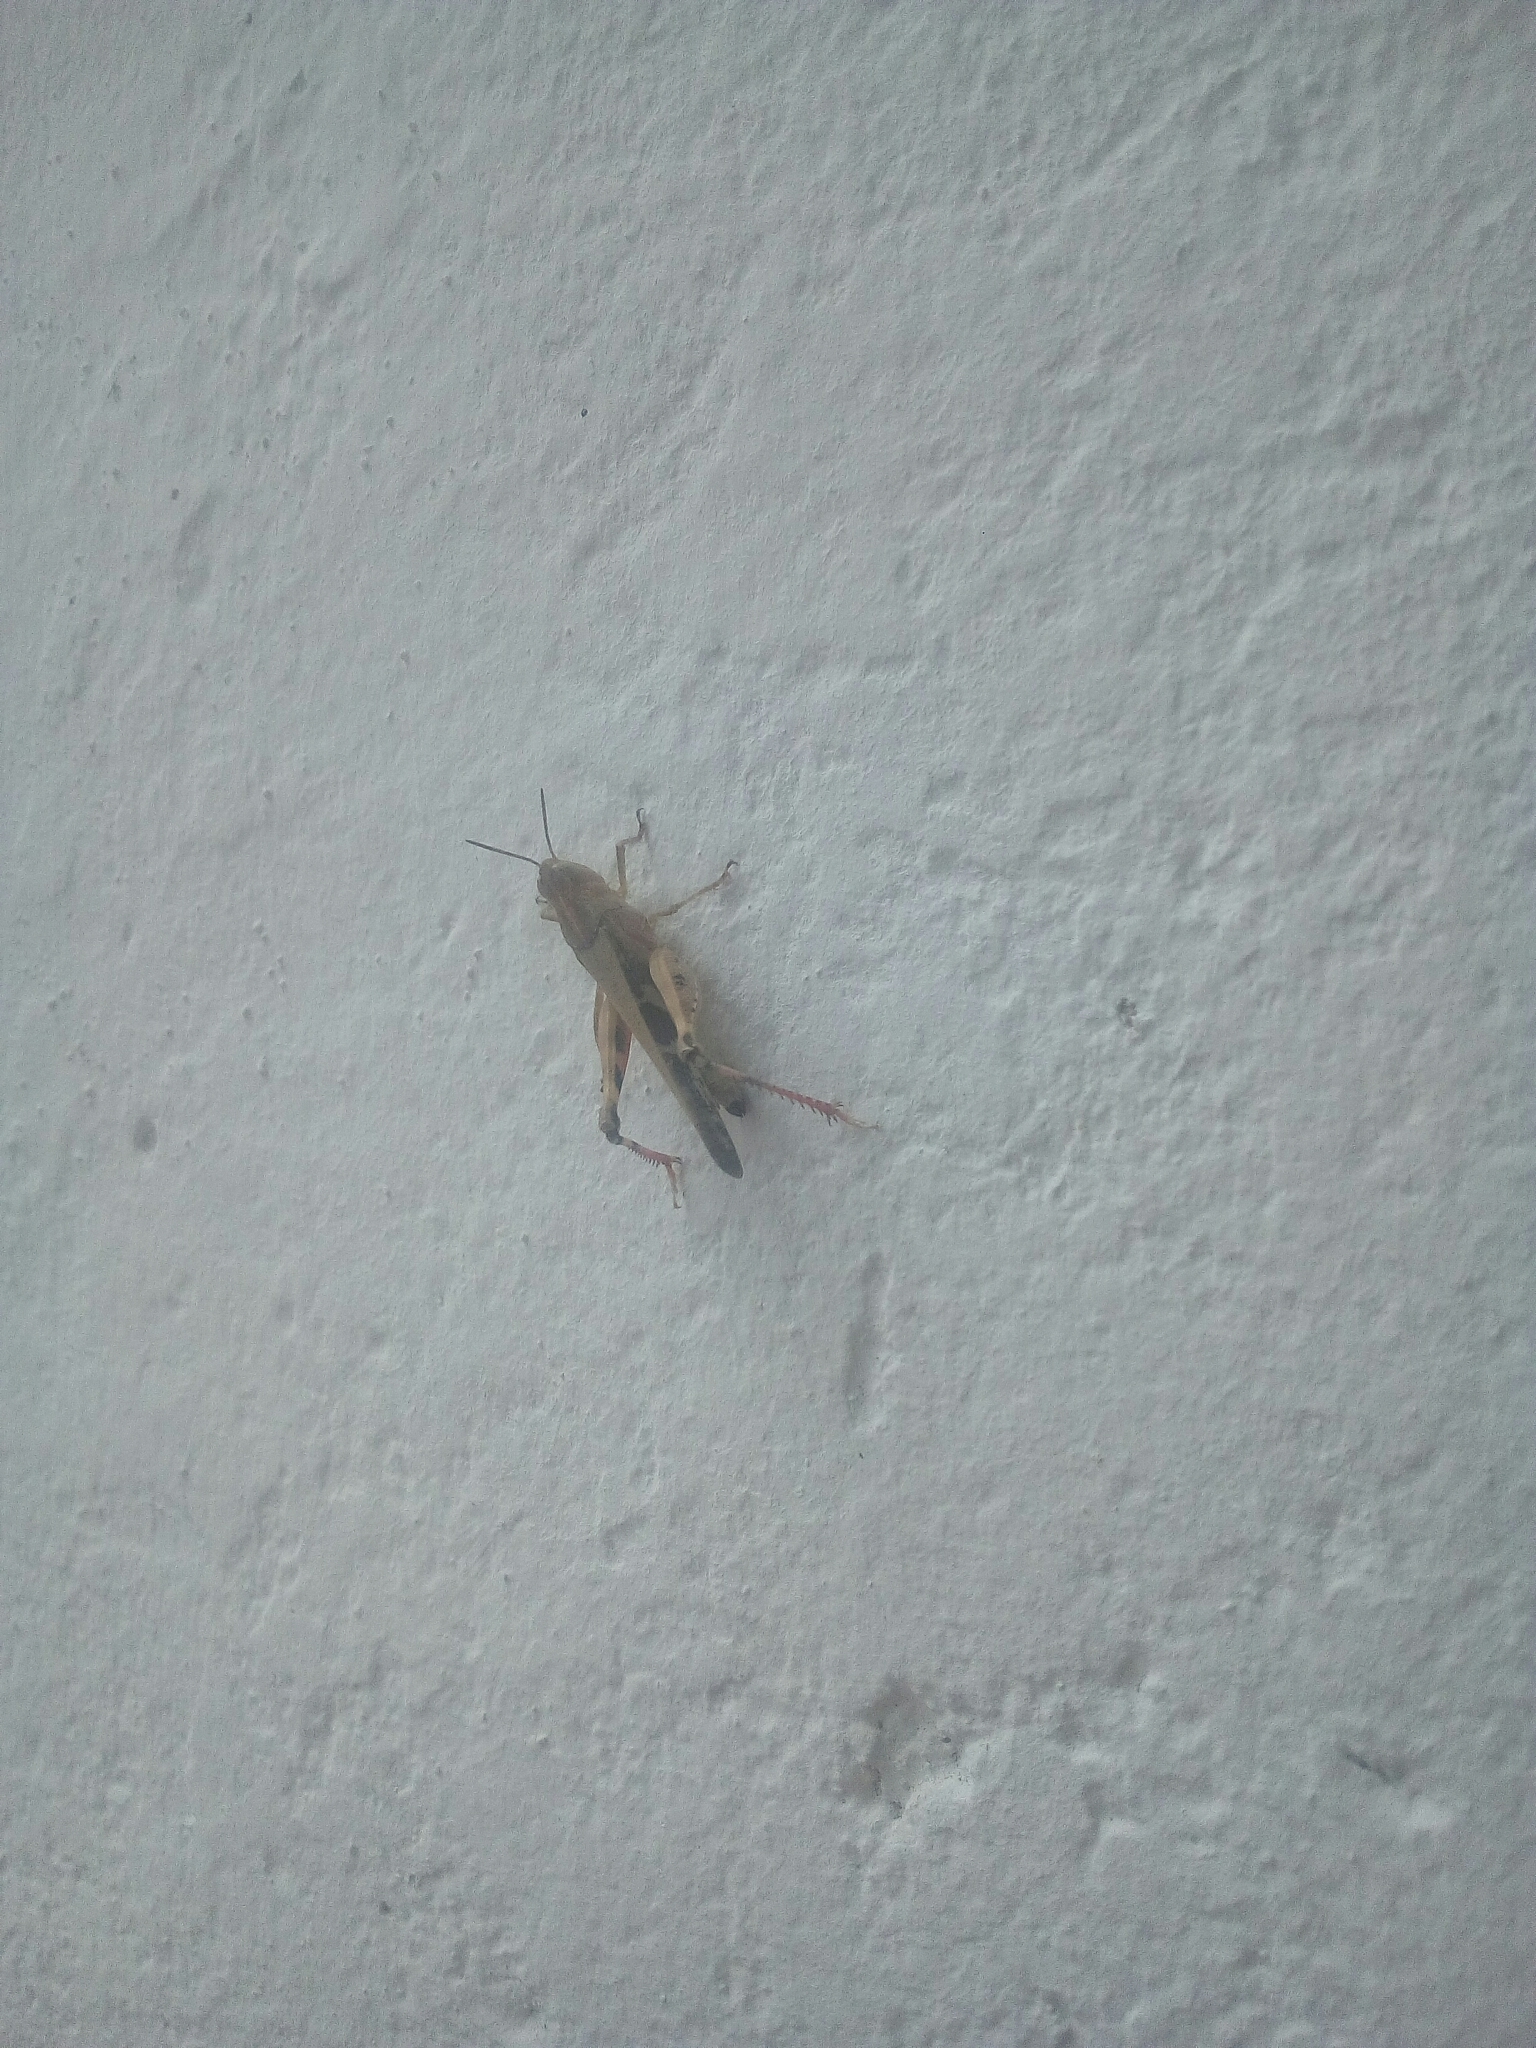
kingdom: Animalia
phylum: Arthropoda
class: Insecta
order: Orthoptera
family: Acrididae
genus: Aiolopus
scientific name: Aiolopus strepens
